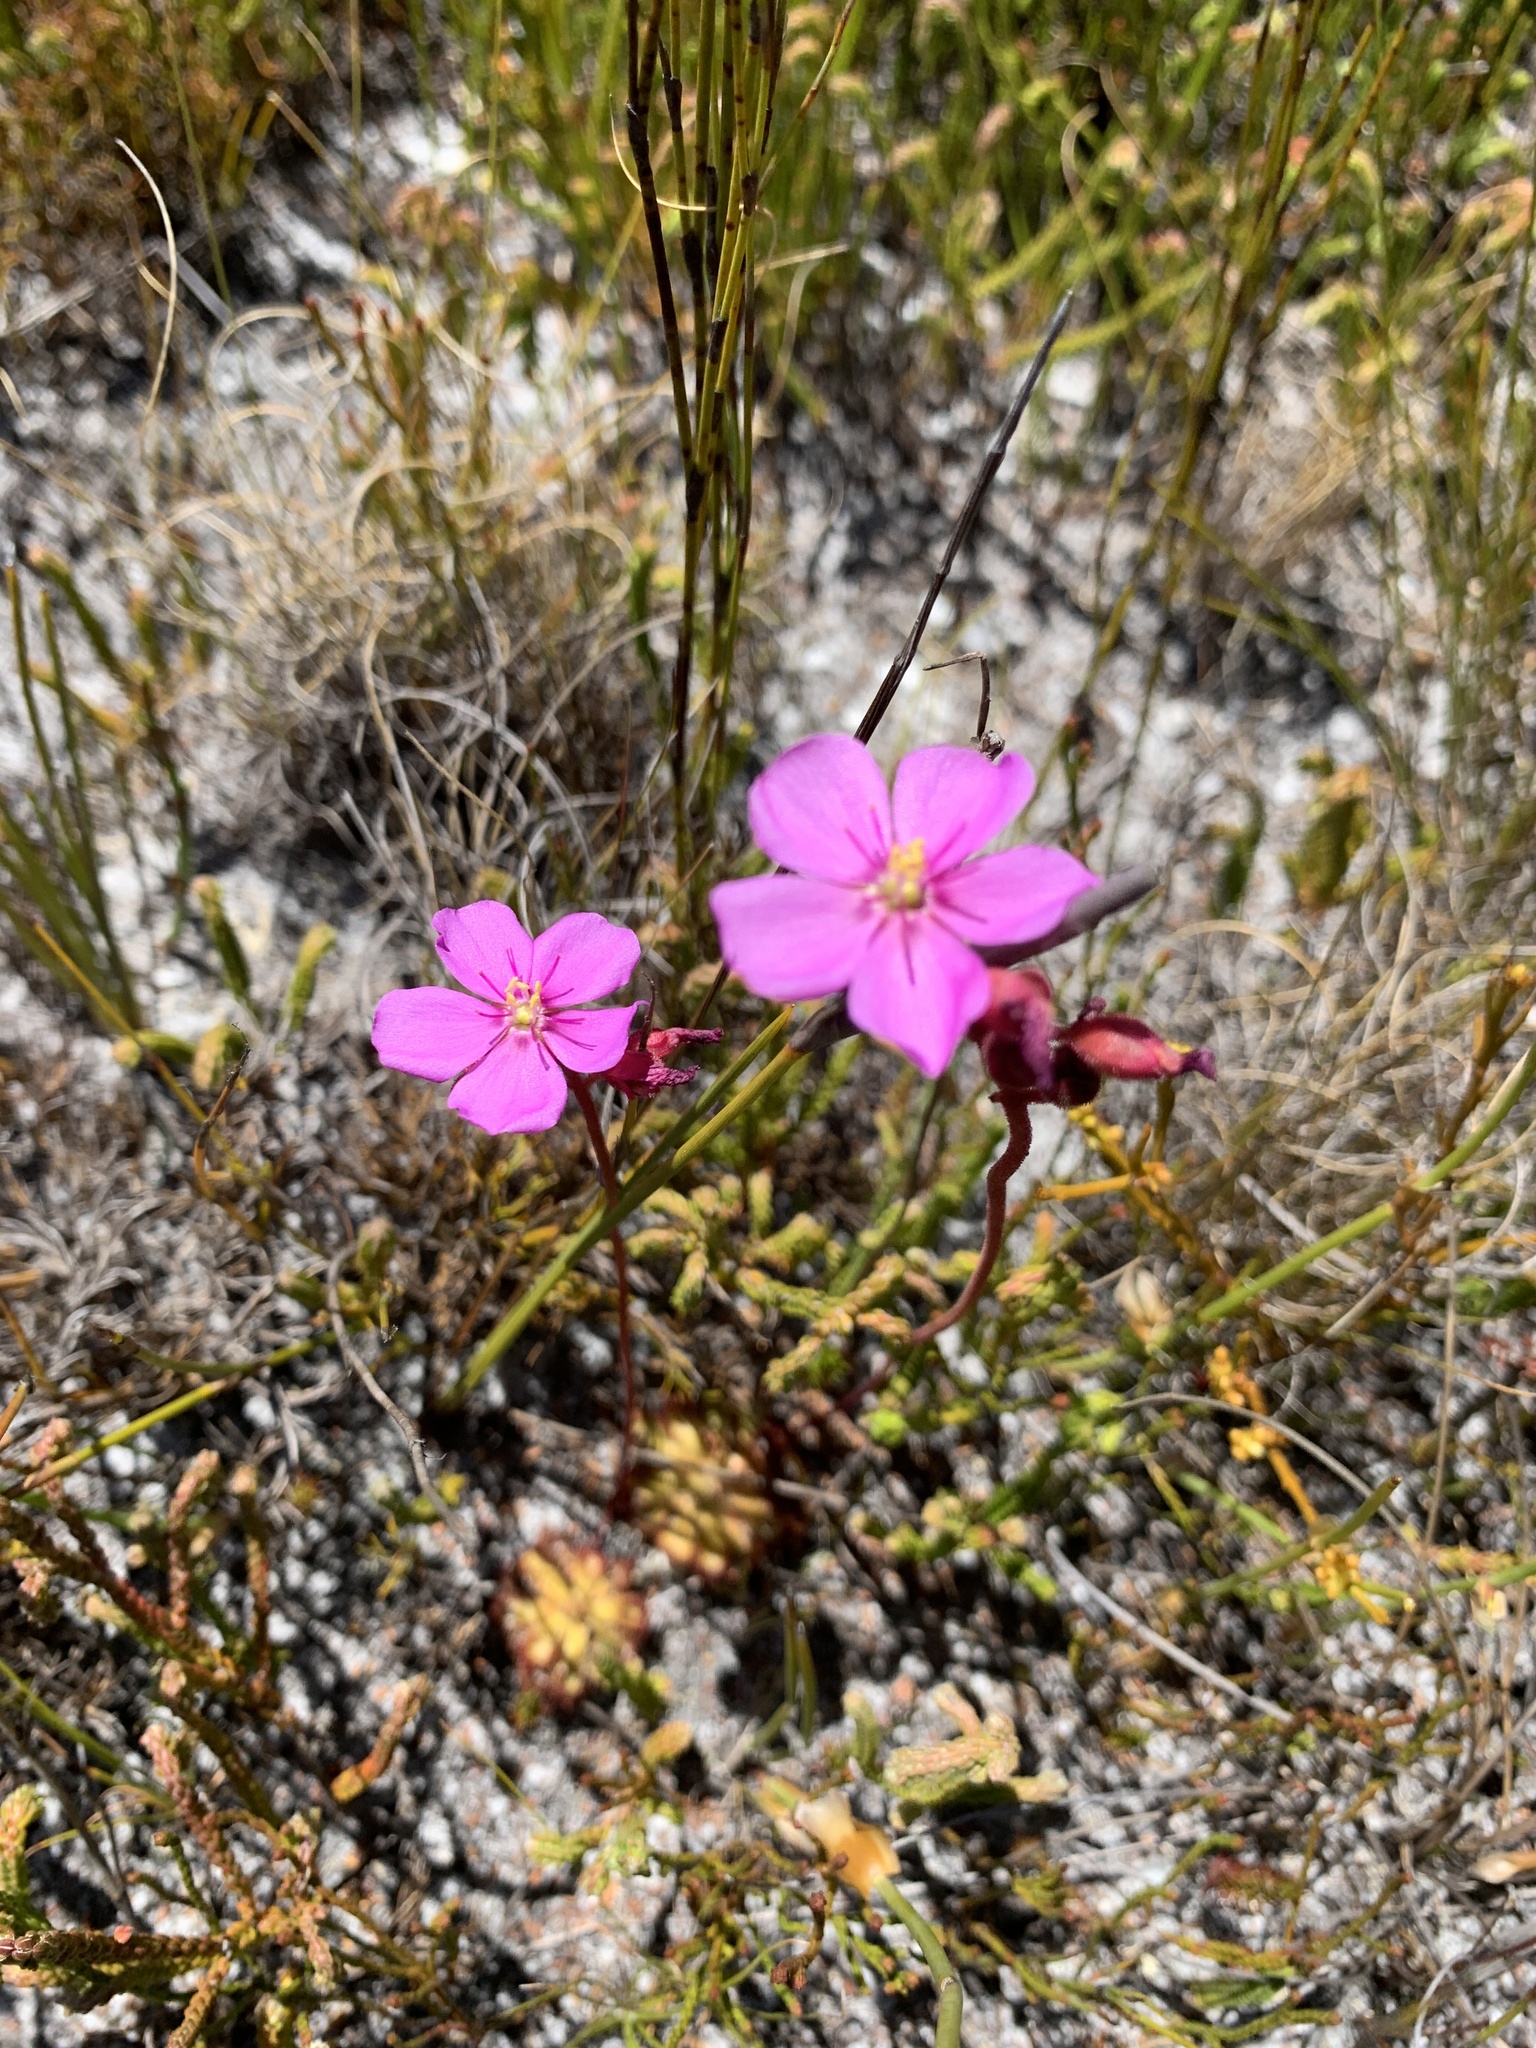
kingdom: Plantae
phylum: Tracheophyta
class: Magnoliopsida
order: Caryophyllales
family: Droseraceae
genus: Drosera
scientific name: Drosera xerophila
